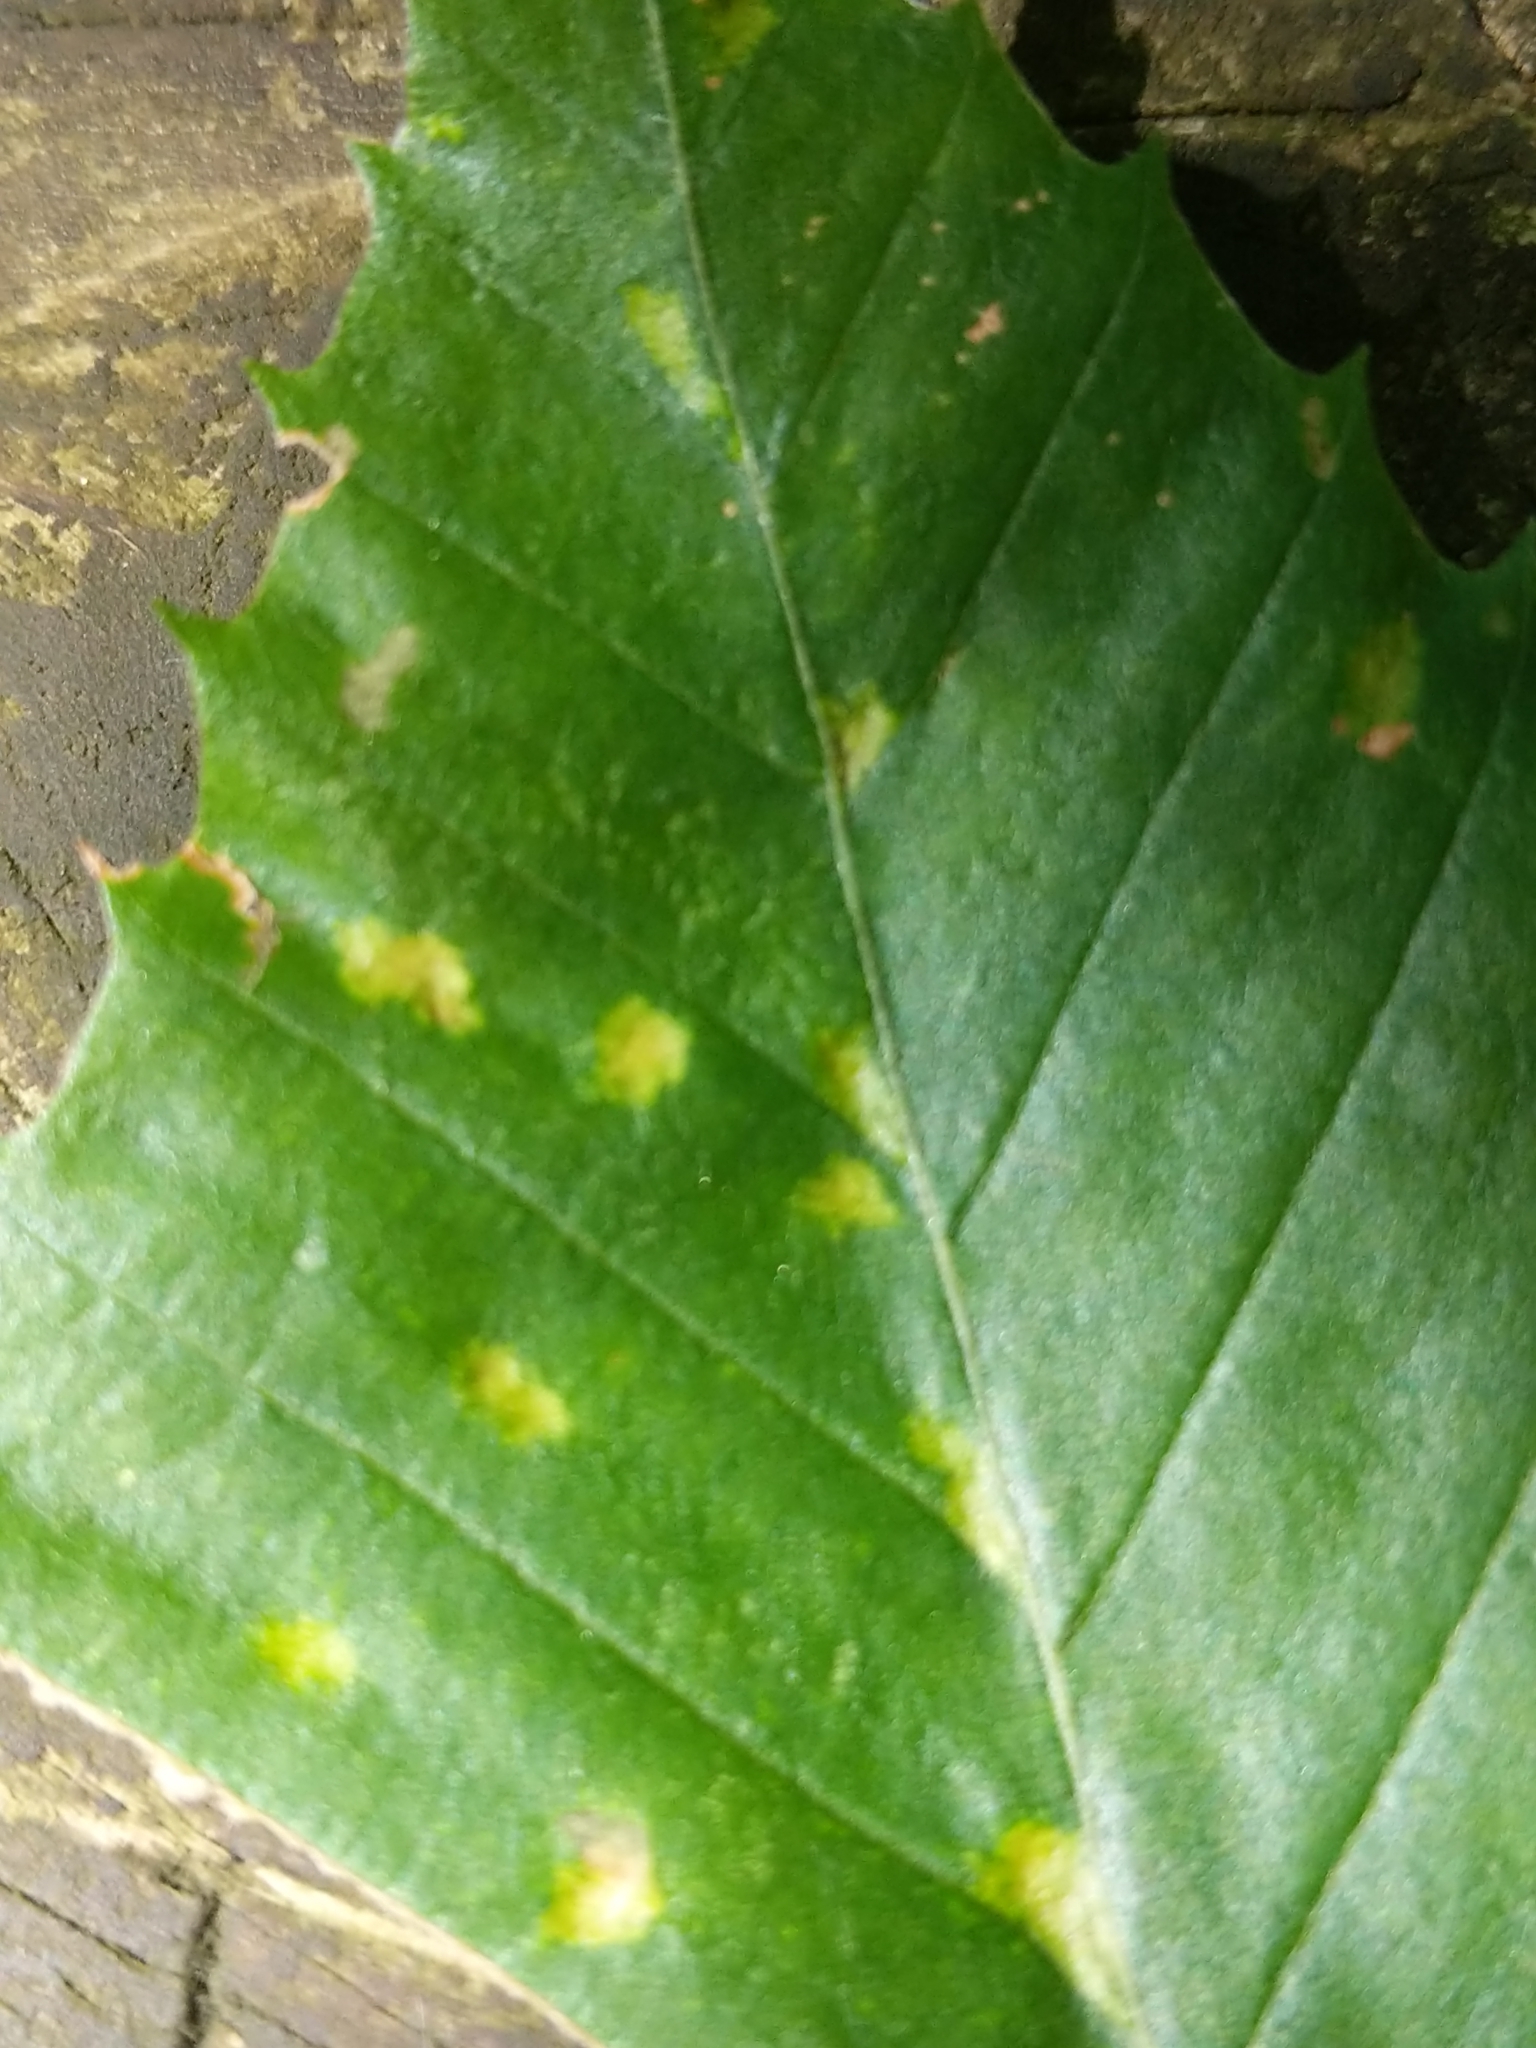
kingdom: Animalia
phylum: Arthropoda
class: Arachnida
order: Trombidiformes
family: Eriophyidae
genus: Acalitus
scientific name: Acalitus
